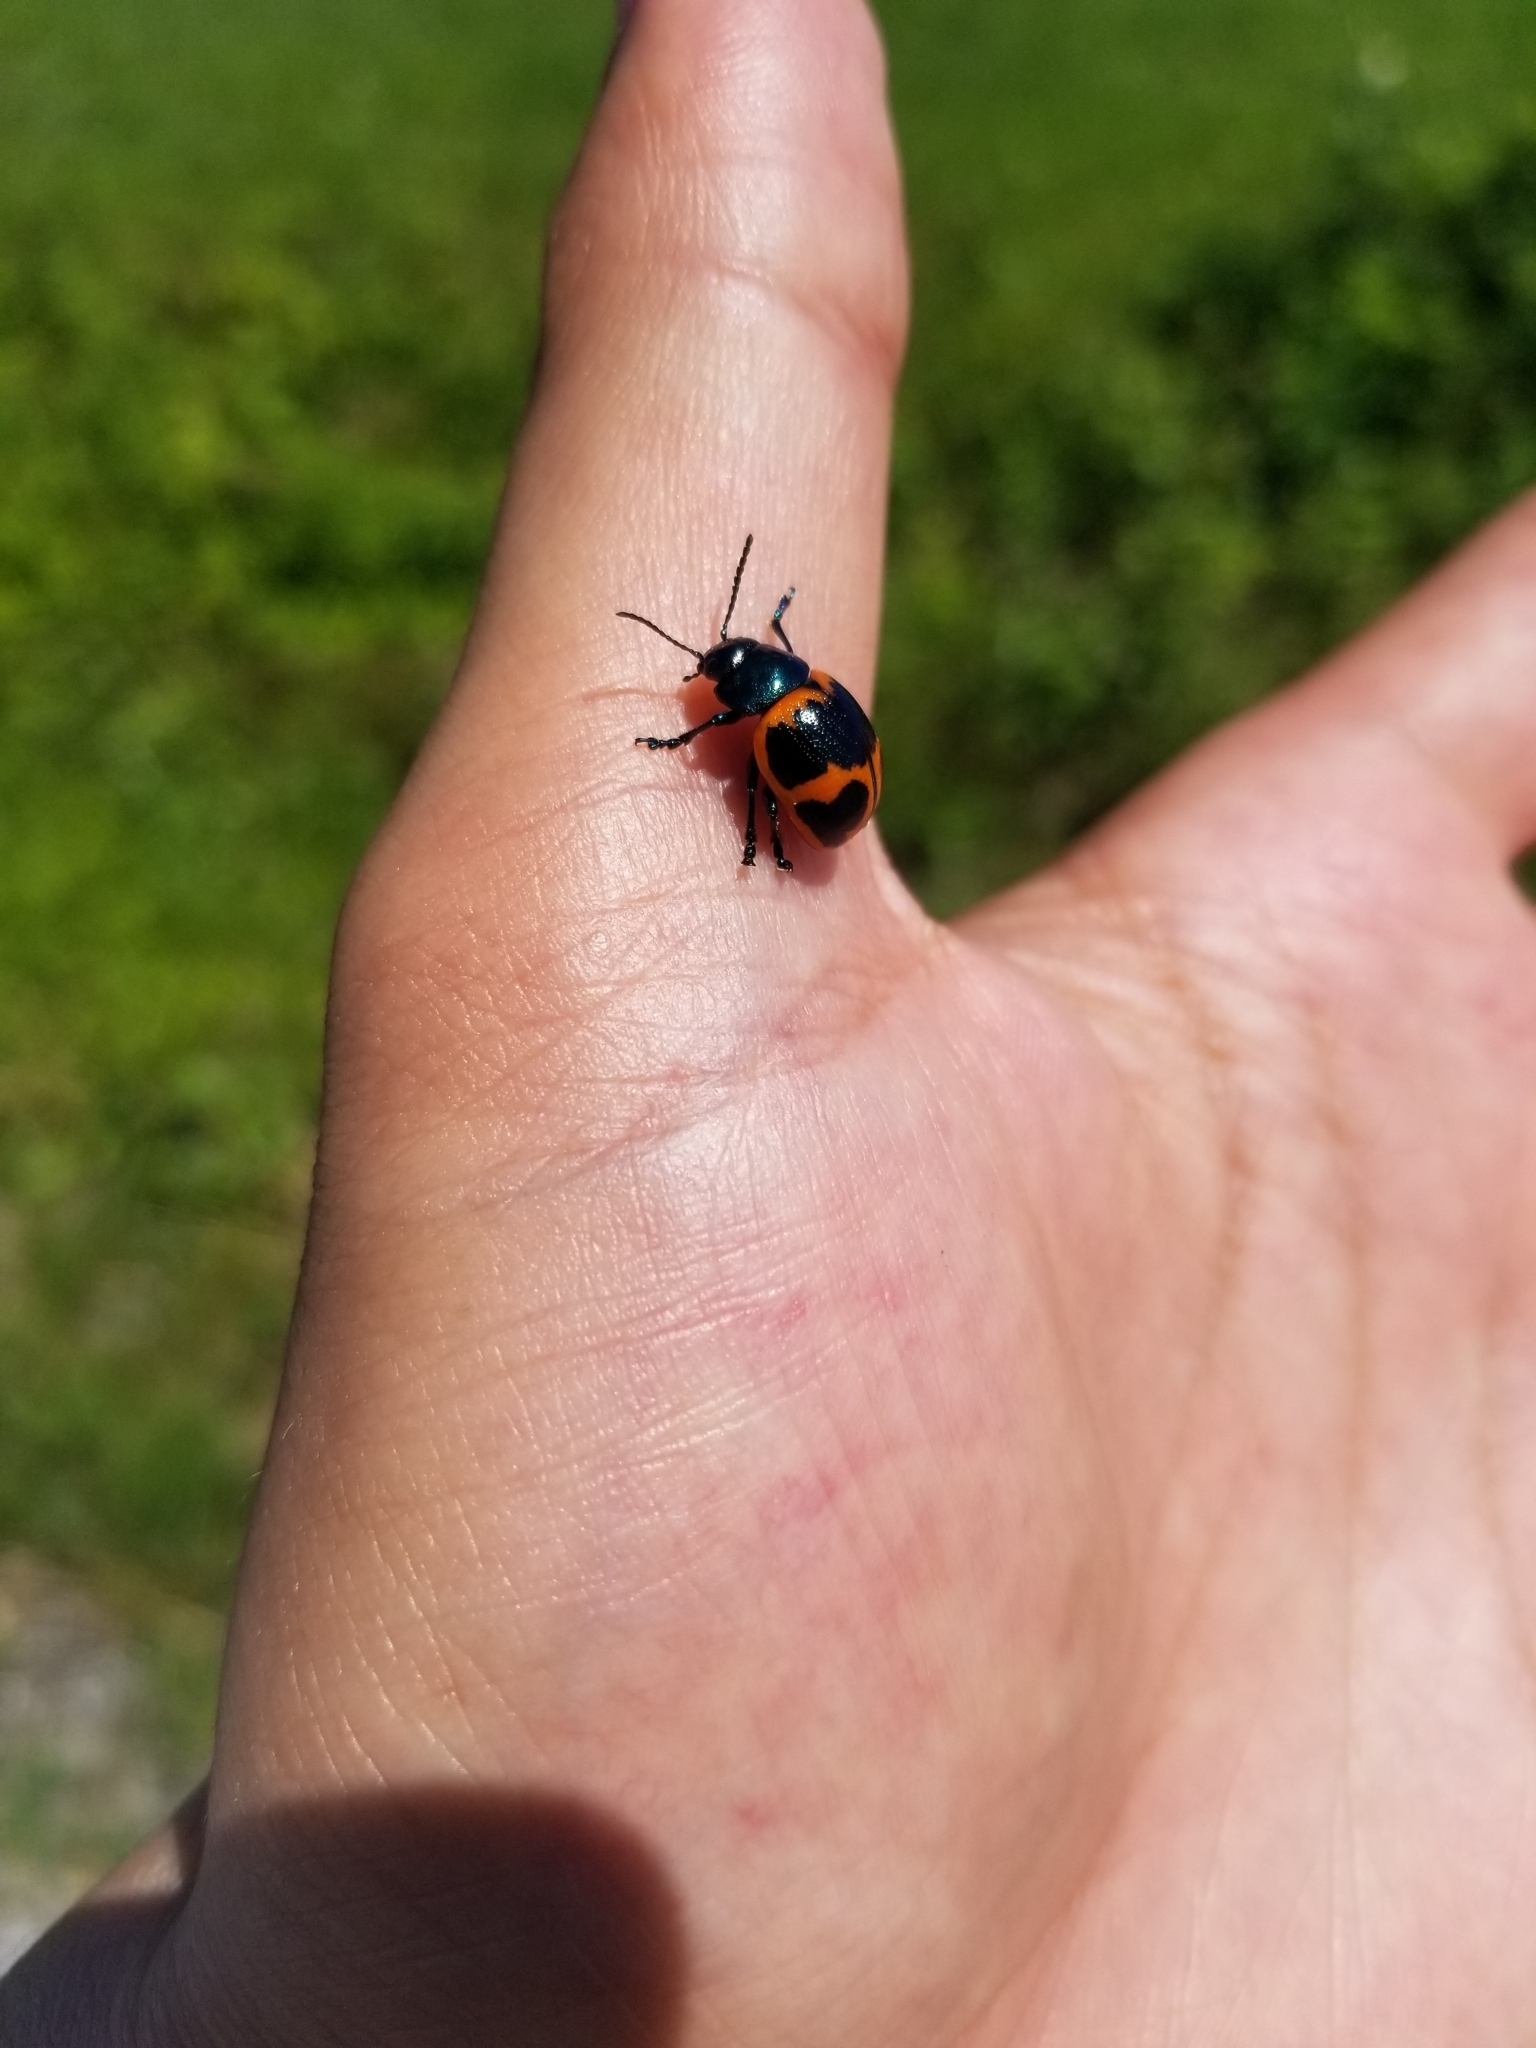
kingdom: Animalia
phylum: Arthropoda
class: Insecta
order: Coleoptera
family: Chrysomelidae
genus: Labidomera
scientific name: Labidomera clivicollis
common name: Swamp milkweed leaf beetle
